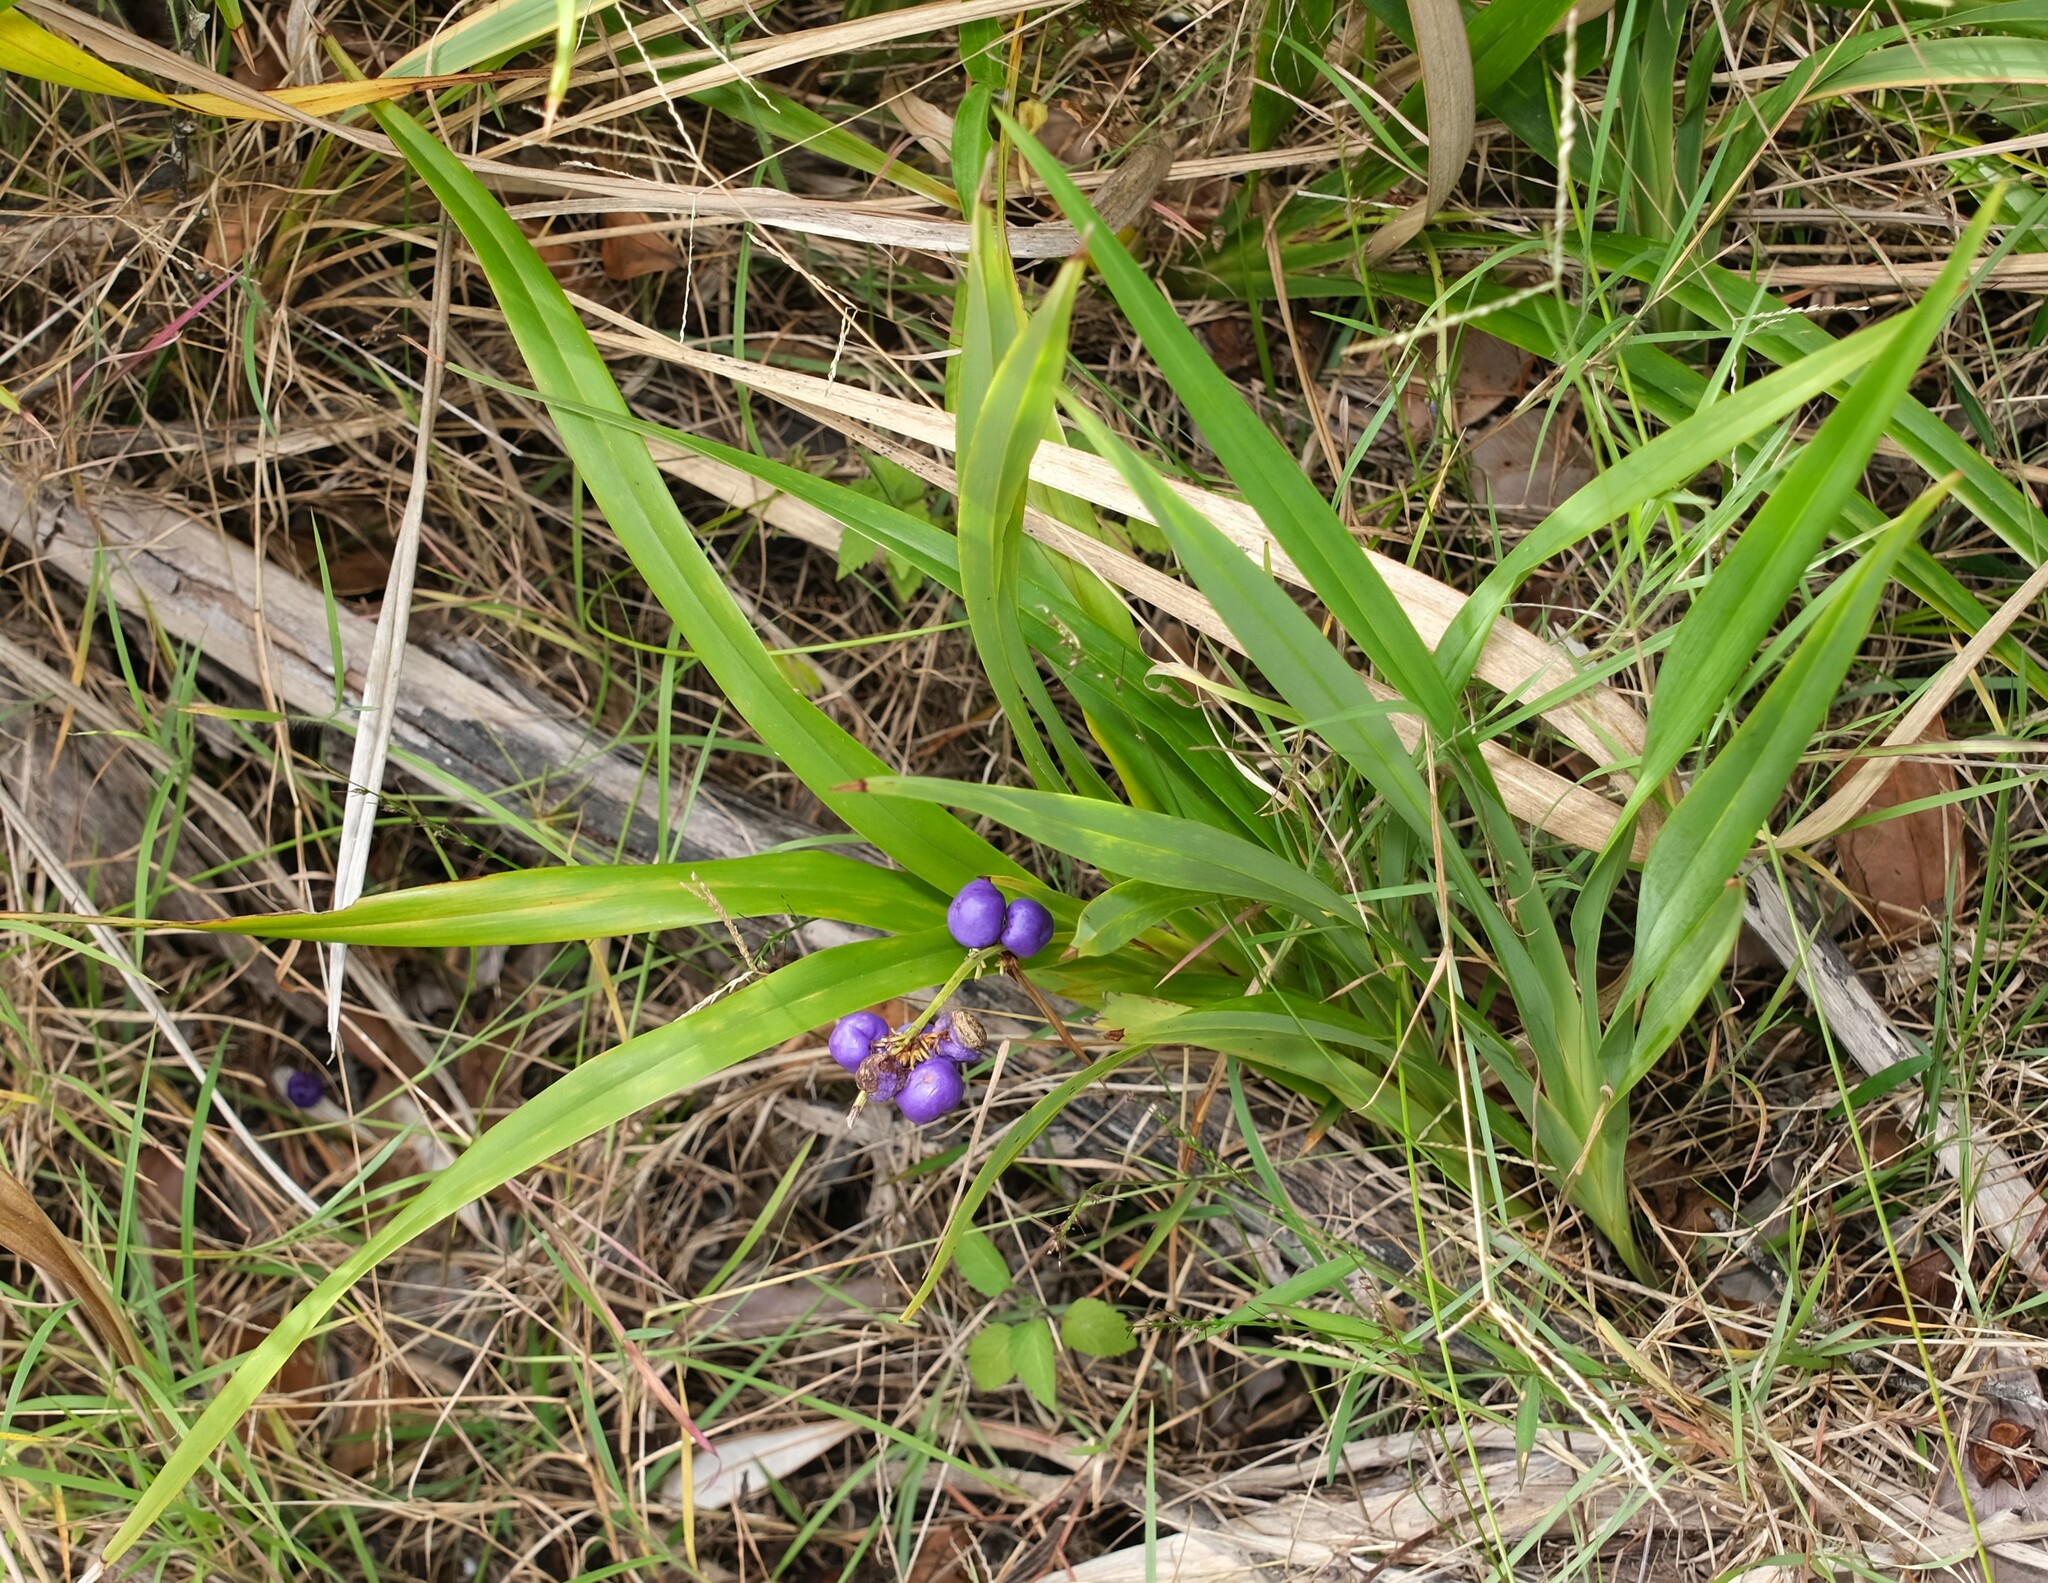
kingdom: Plantae
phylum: Tracheophyta
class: Liliopsida
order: Asparagales
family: Asphodelaceae
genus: Dianella
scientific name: Dianella caerulea
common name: Blue flax-lily
